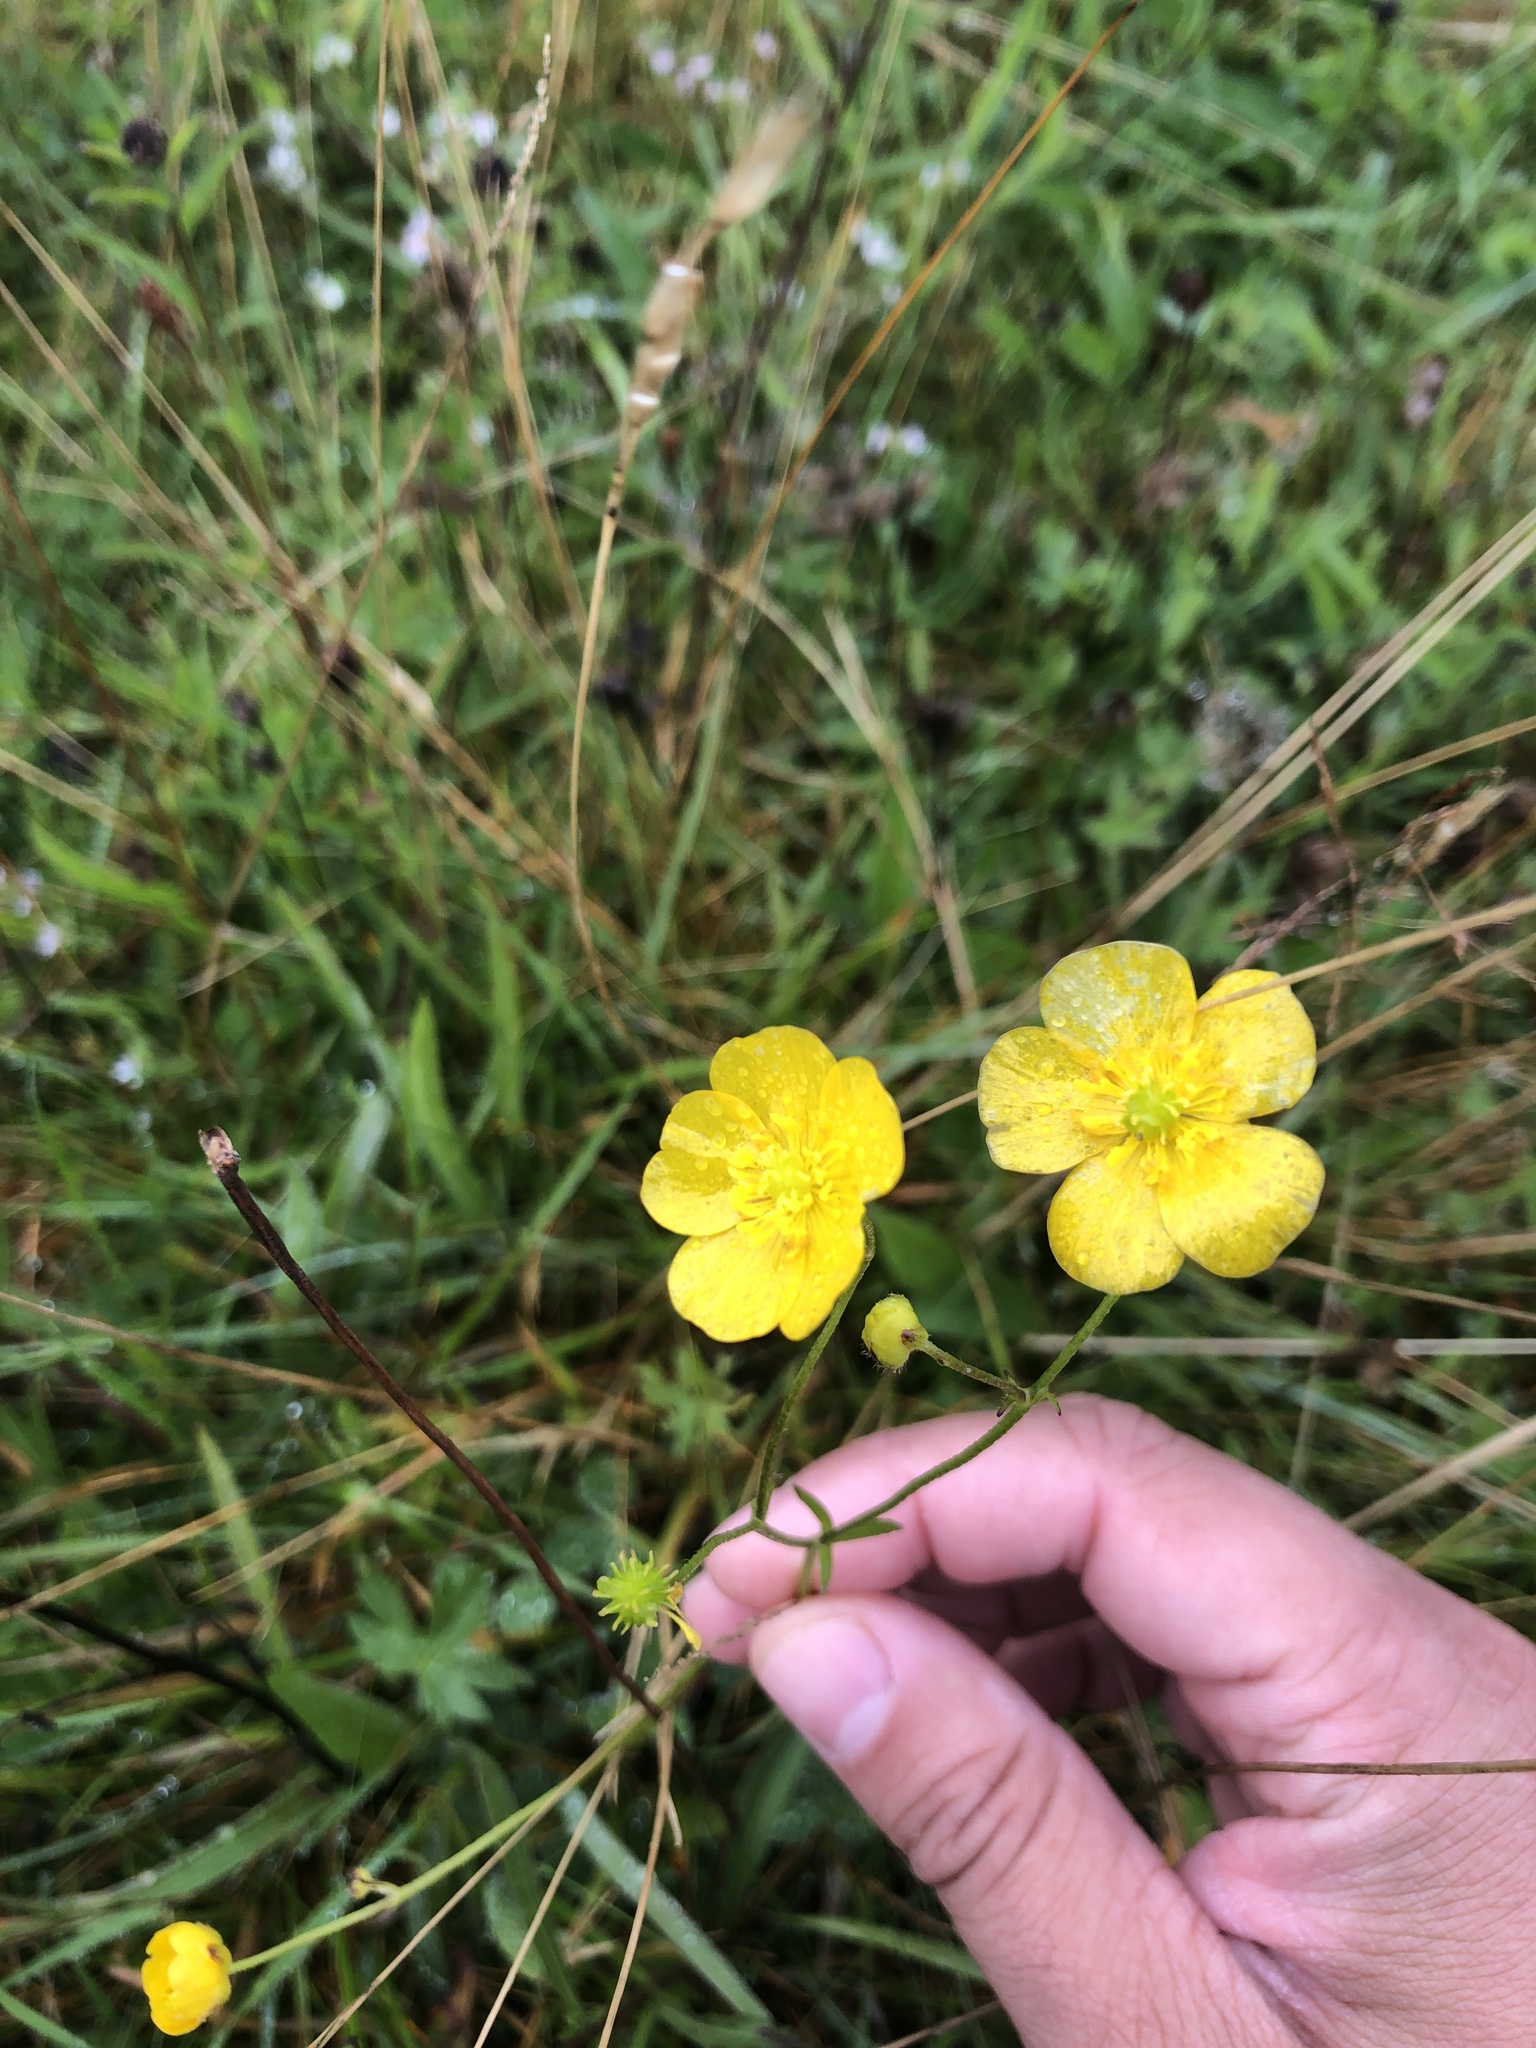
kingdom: Plantae
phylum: Tracheophyta
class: Magnoliopsida
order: Ranunculales
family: Ranunculaceae
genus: Ranunculus
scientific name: Ranunculus acris
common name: Meadow buttercup
